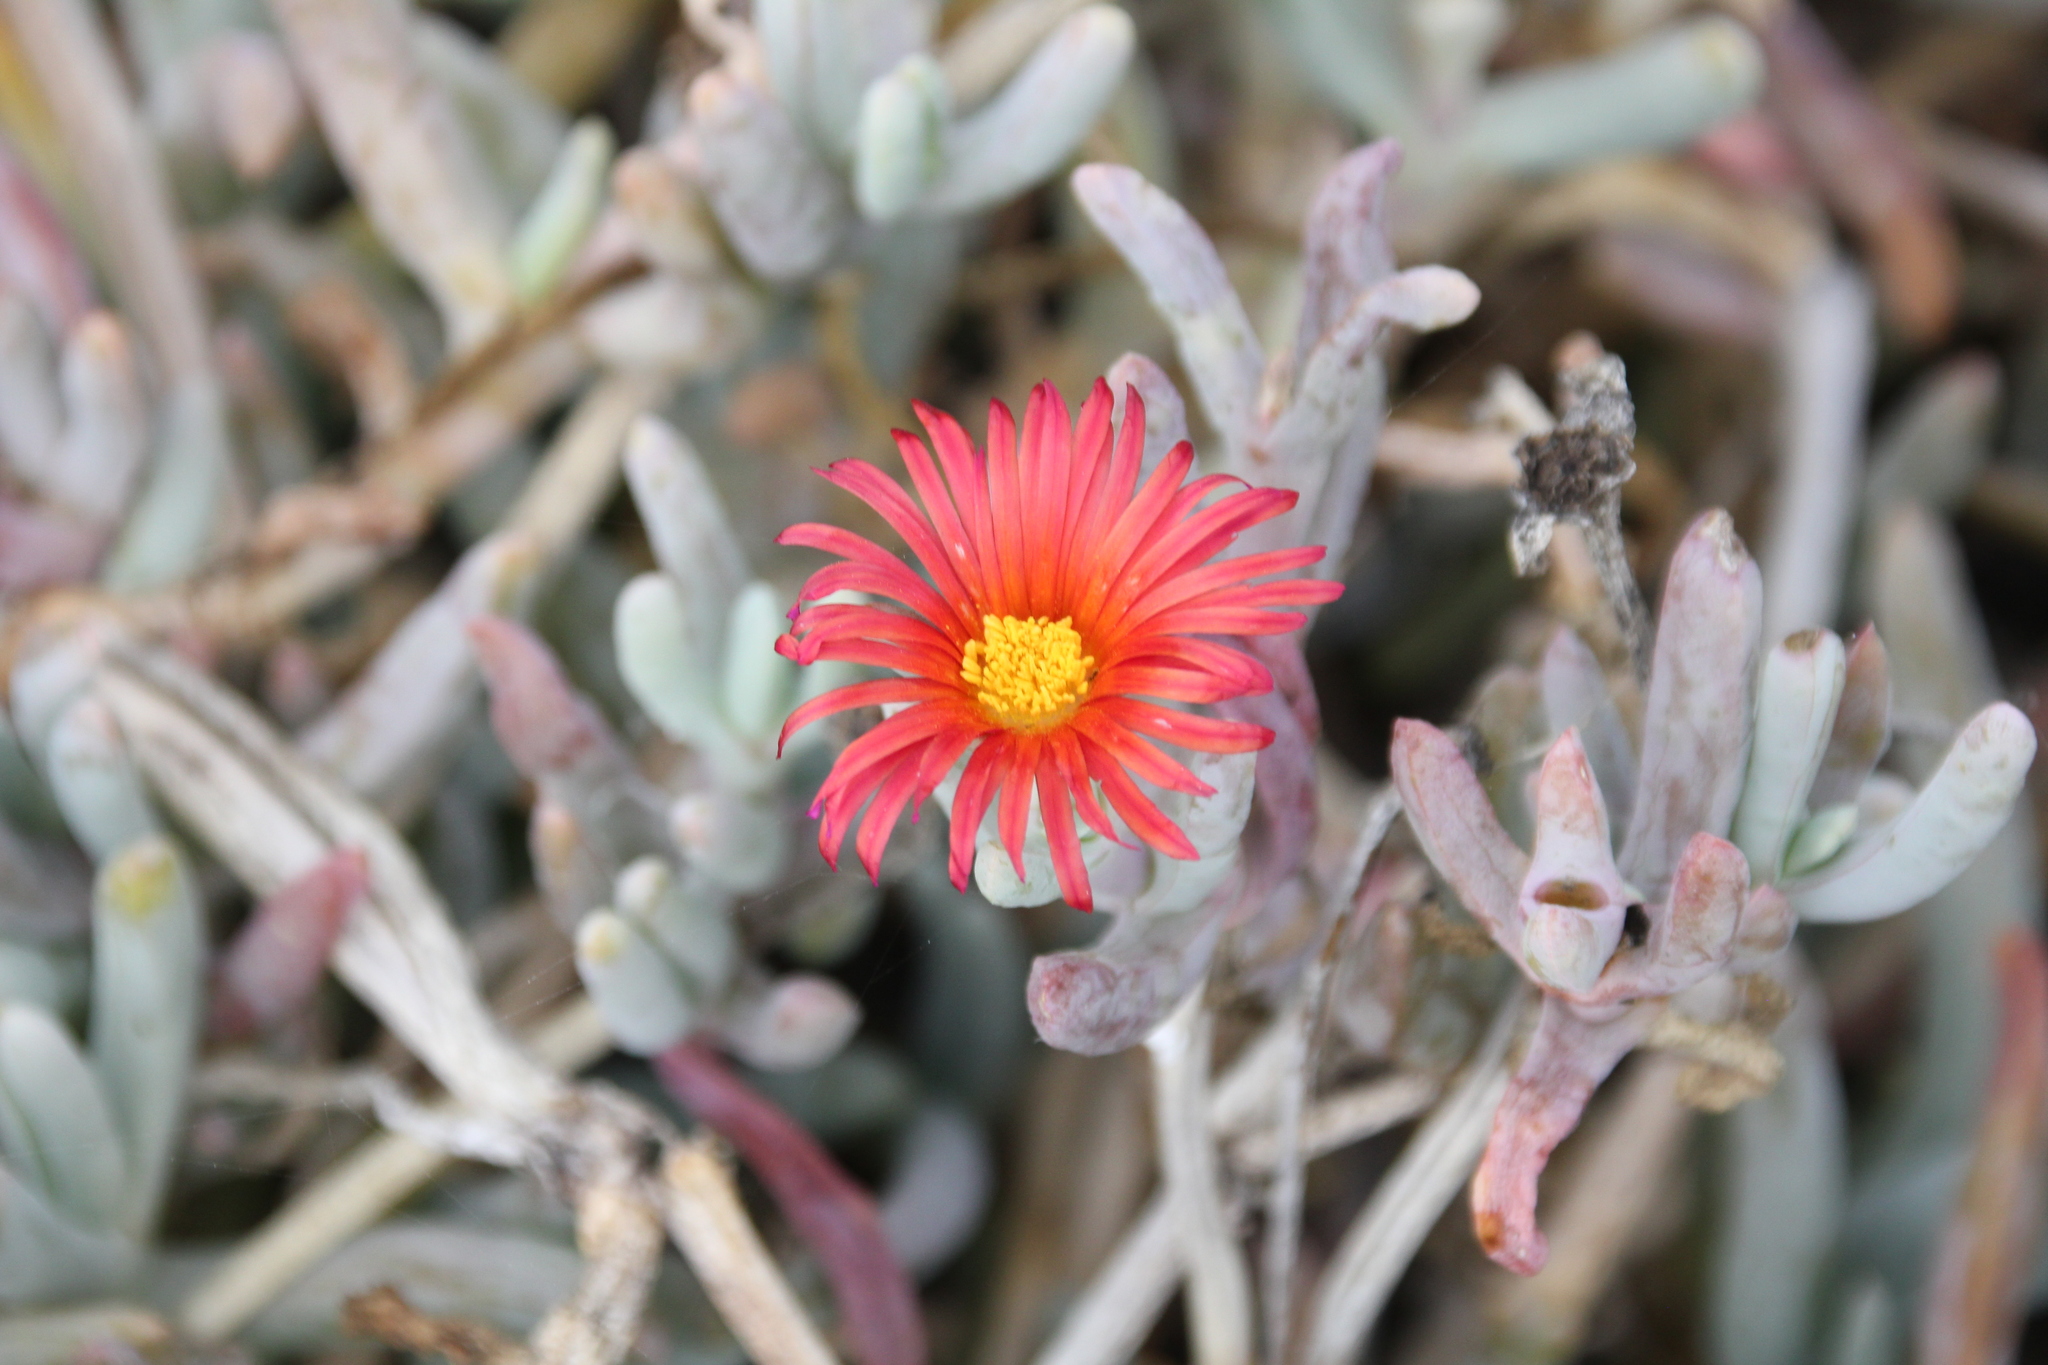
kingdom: Plantae
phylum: Tracheophyta
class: Magnoliopsida
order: Caryophyllales
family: Aizoaceae
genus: Malephora
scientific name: Malephora crocea
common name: Coppery mesemb
